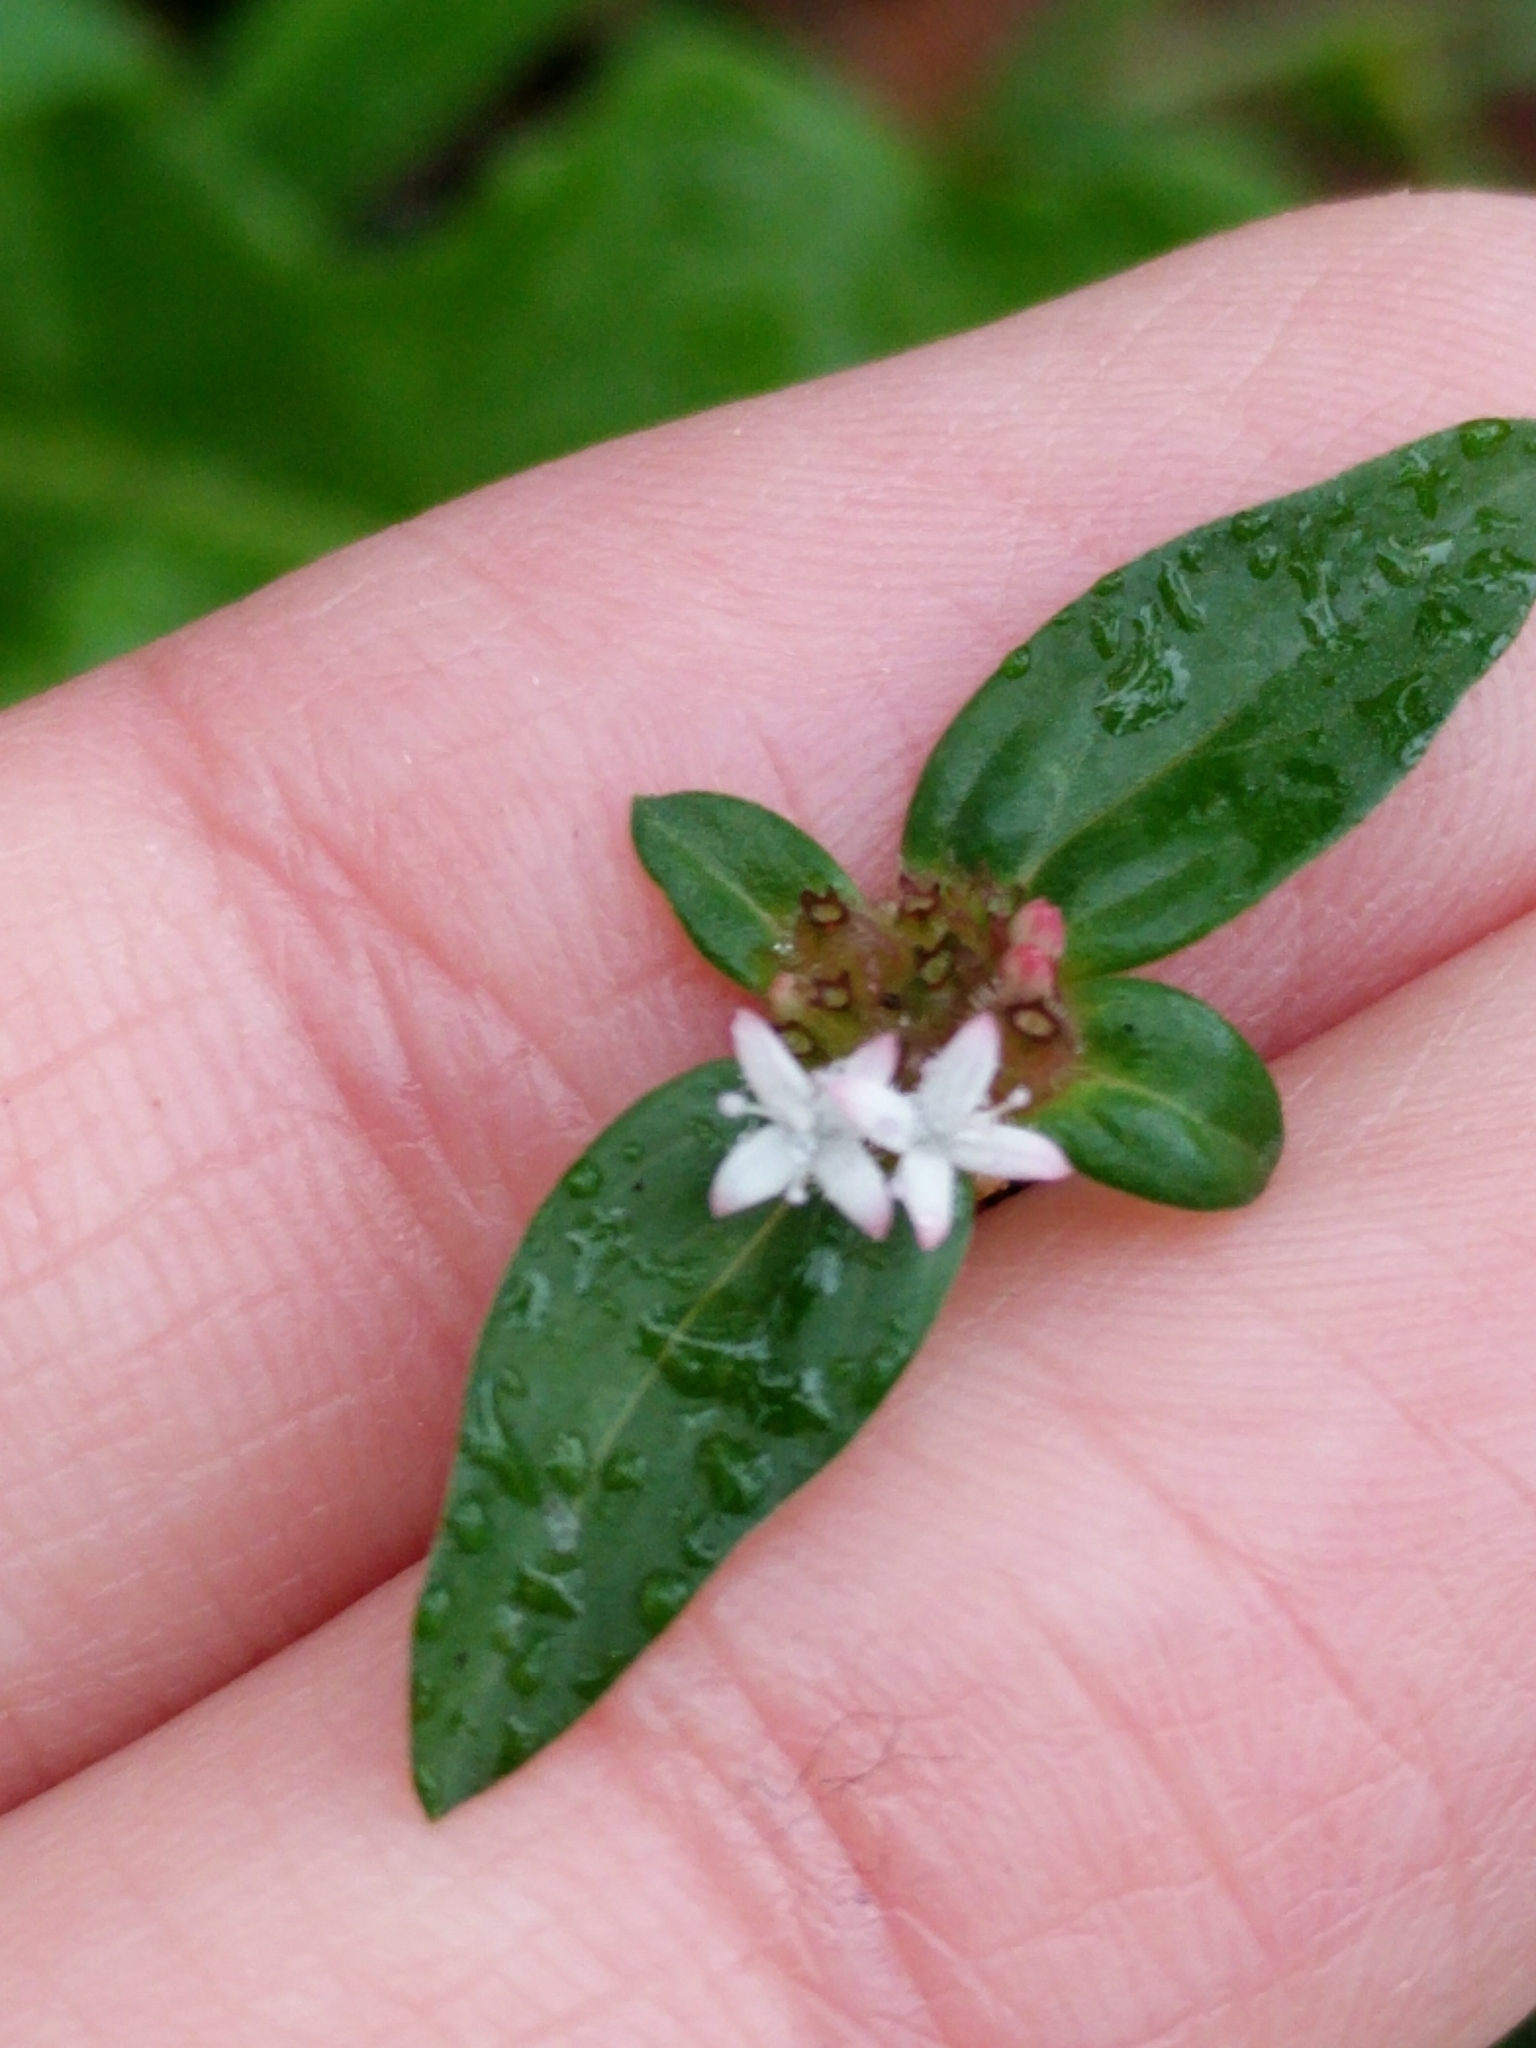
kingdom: Plantae
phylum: Tracheophyta
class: Magnoliopsida
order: Gentianales
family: Rubiaceae
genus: Spermacoce
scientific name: Spermacoce remota
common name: Woodland false buttonweed
